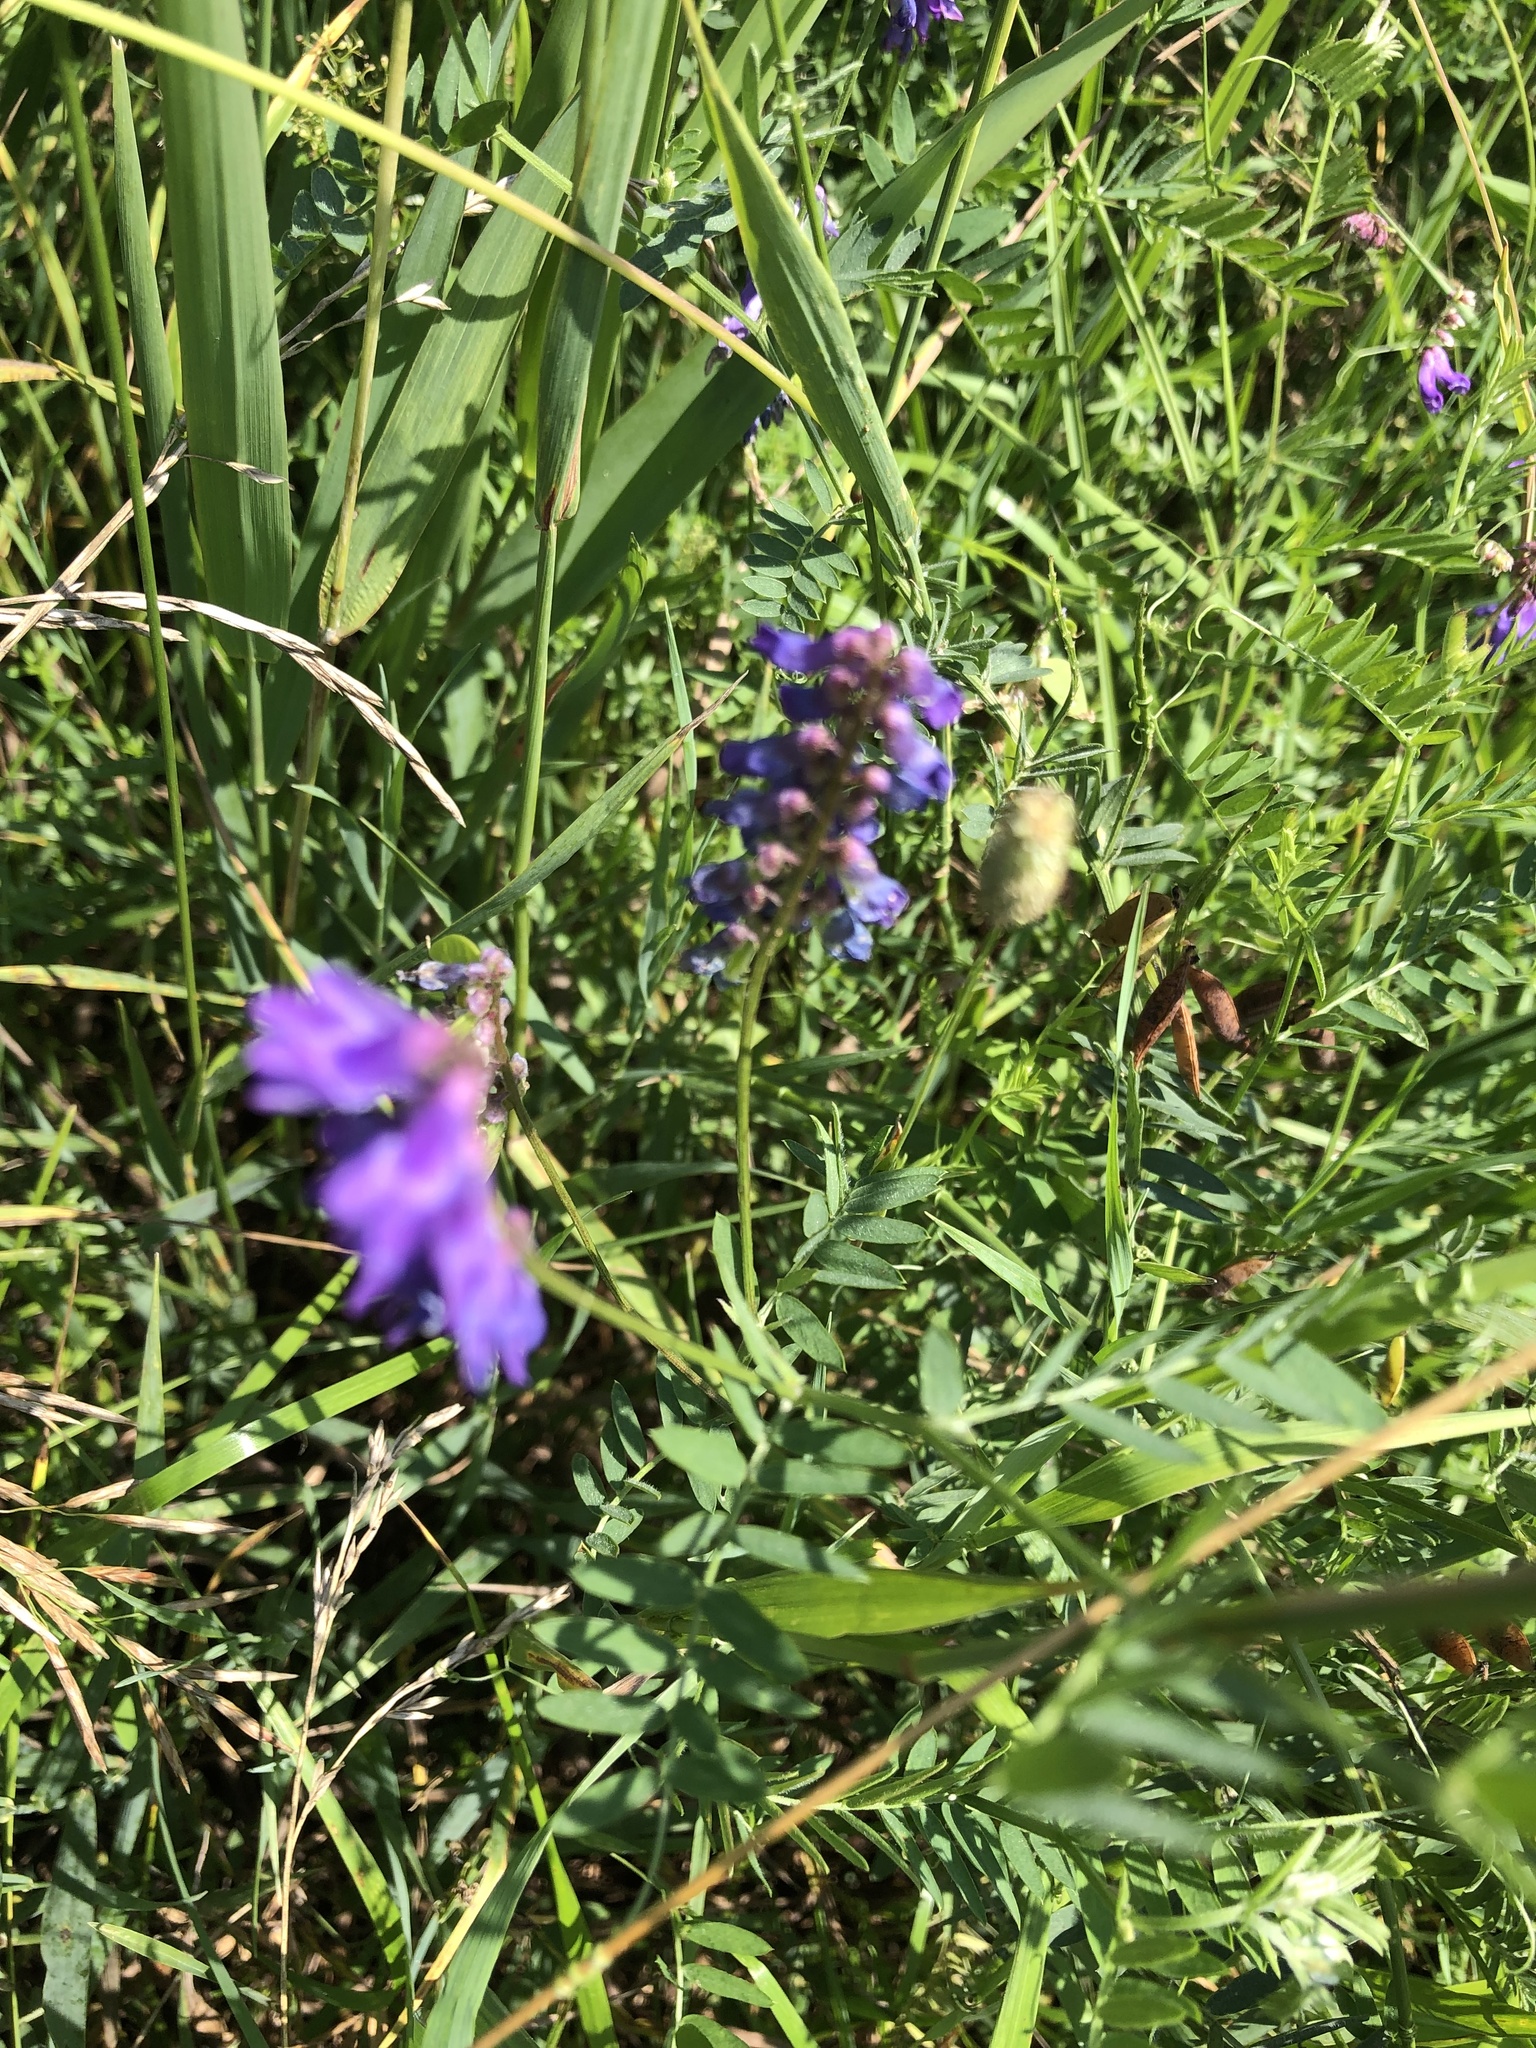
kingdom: Plantae
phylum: Tracheophyta
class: Magnoliopsida
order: Fabales
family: Fabaceae
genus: Vicia
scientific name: Vicia cracca
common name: Bird vetch
